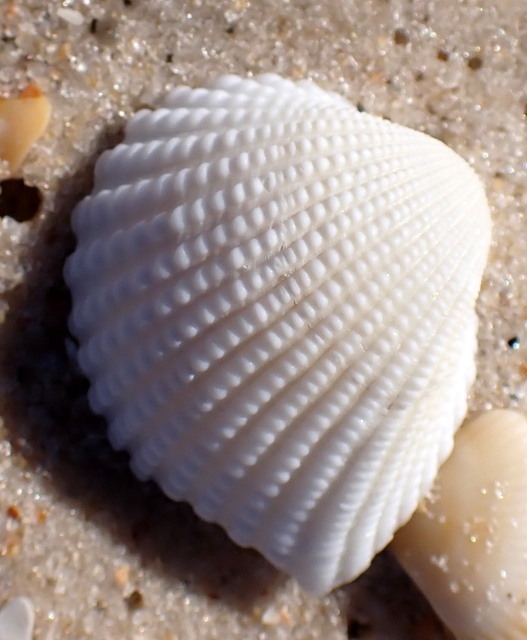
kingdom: Animalia
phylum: Mollusca
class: Bivalvia
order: Arcida
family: Arcidae
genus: Anadara
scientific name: Anadara brasiliana
